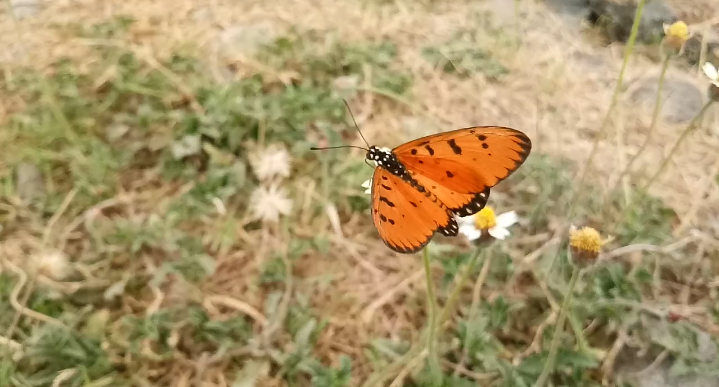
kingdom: Animalia
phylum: Arthropoda
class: Insecta
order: Lepidoptera
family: Nymphalidae
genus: Acraea
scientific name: Acraea terpsicore
